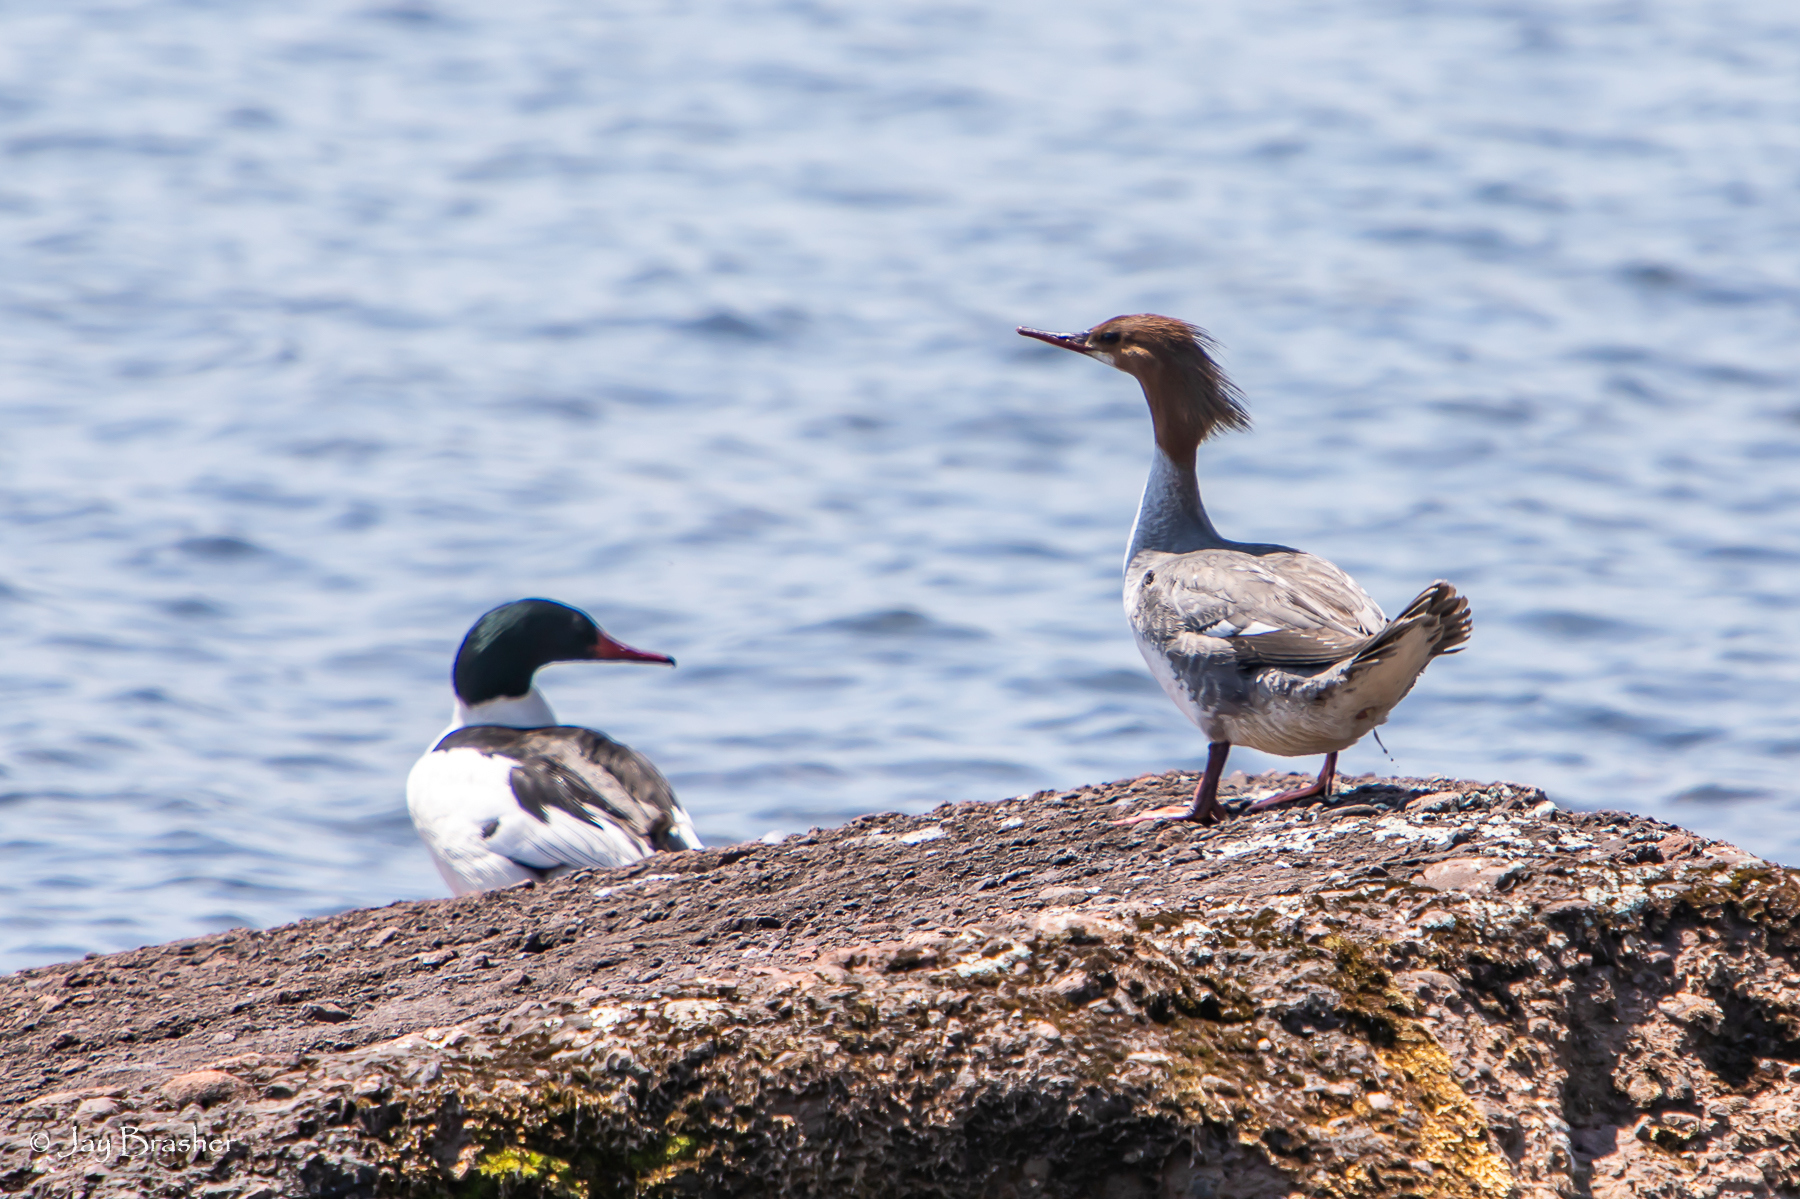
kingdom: Animalia
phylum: Chordata
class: Aves
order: Anseriformes
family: Anatidae
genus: Mergus
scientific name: Mergus merganser
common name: Common merganser
